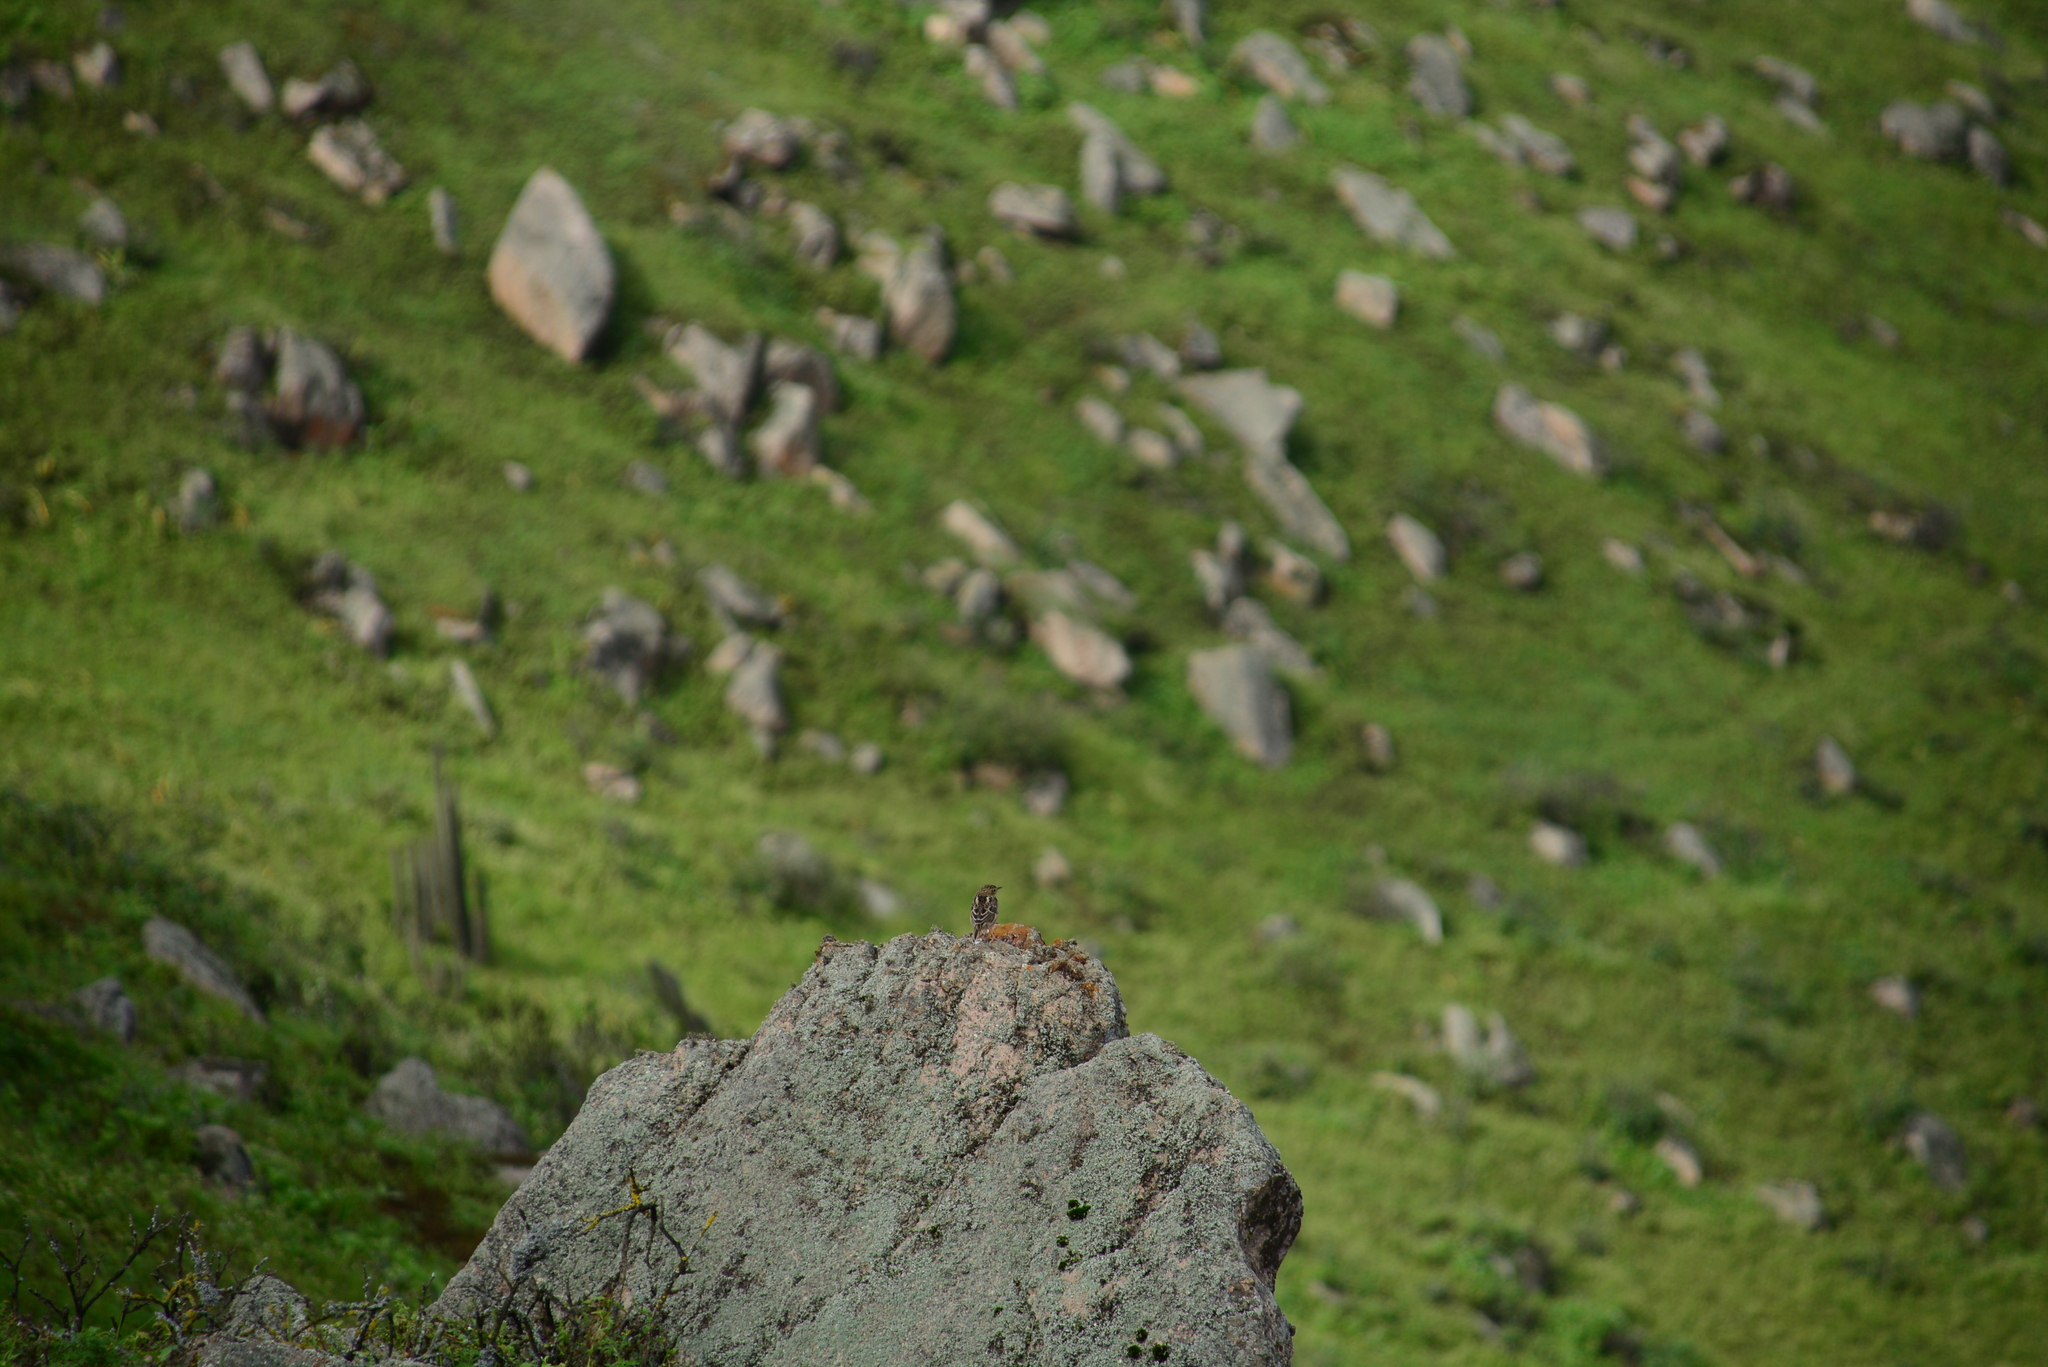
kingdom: Animalia
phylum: Chordata
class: Aves
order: Passeriformes
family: Motacillidae
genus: Anthus
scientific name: Anthus peruvianus
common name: Peruvian pipit
